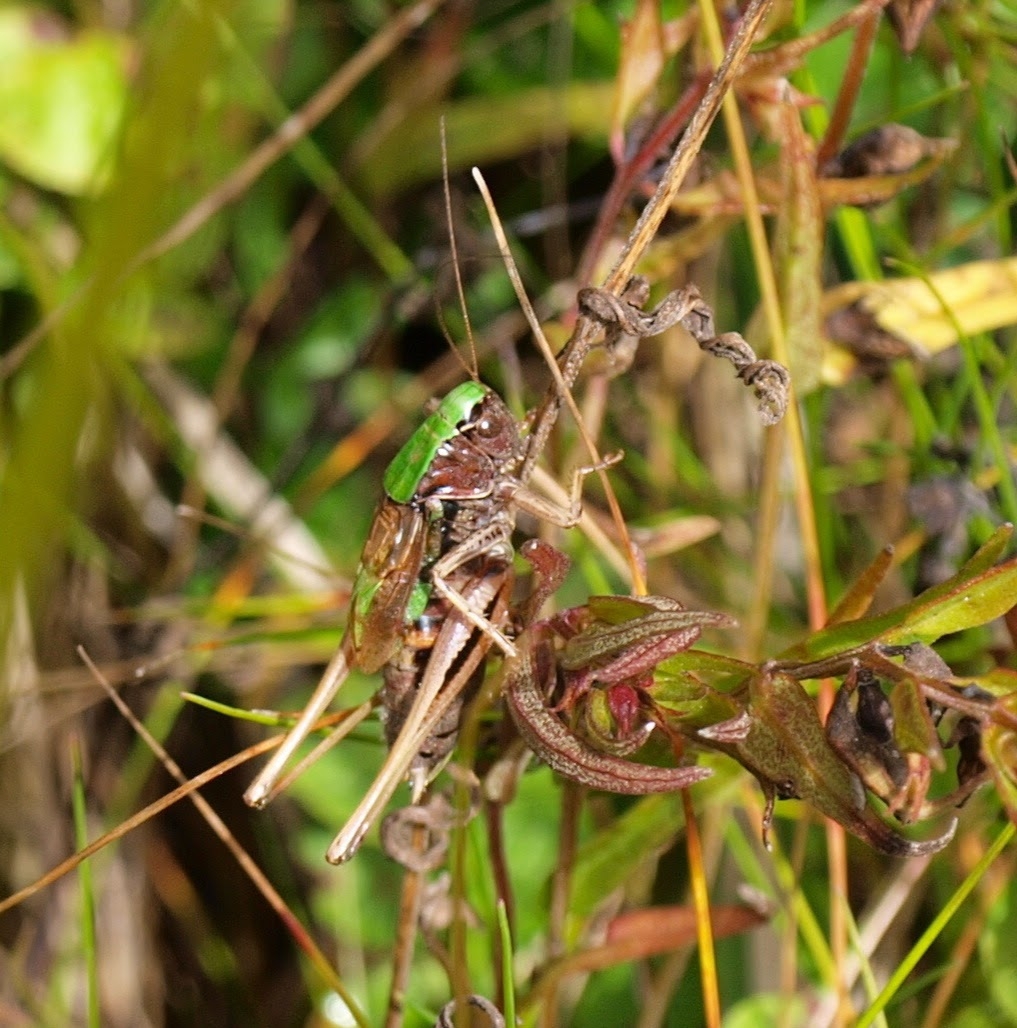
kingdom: Animalia
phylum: Arthropoda
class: Insecta
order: Orthoptera
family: Tettigoniidae
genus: Decticus
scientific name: Decticus verrucivorus
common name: Wart-biter
